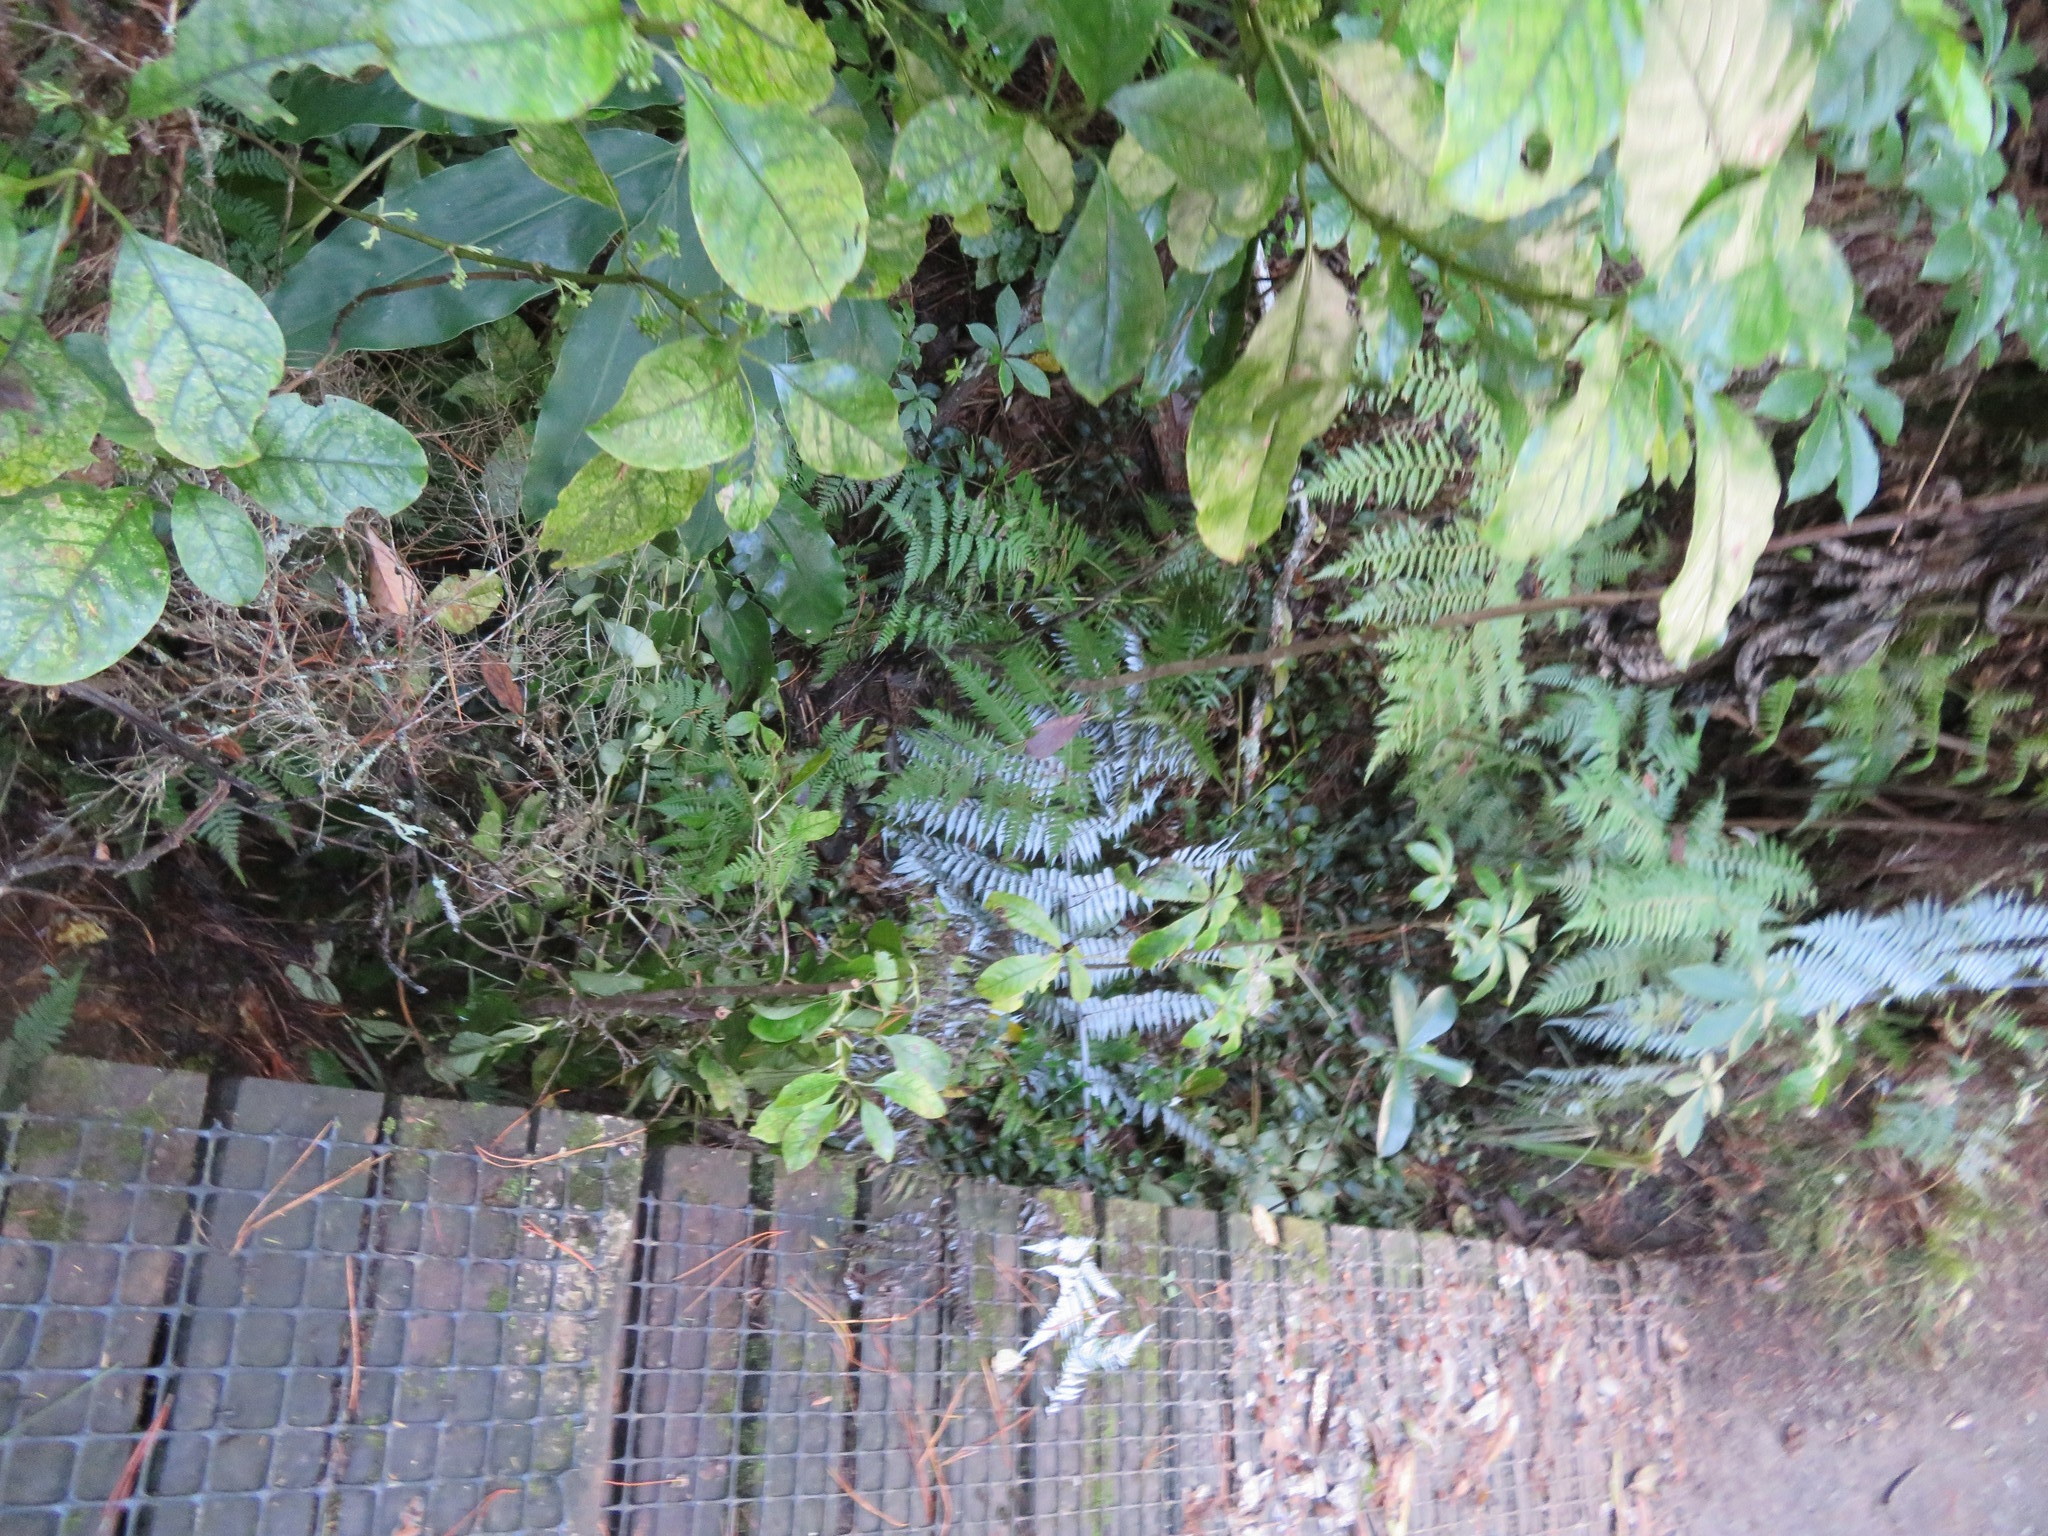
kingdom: Plantae
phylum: Tracheophyta
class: Magnoliopsida
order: Gentianales
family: Rubiaceae
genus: Coprosma
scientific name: Coprosma autumnalis
